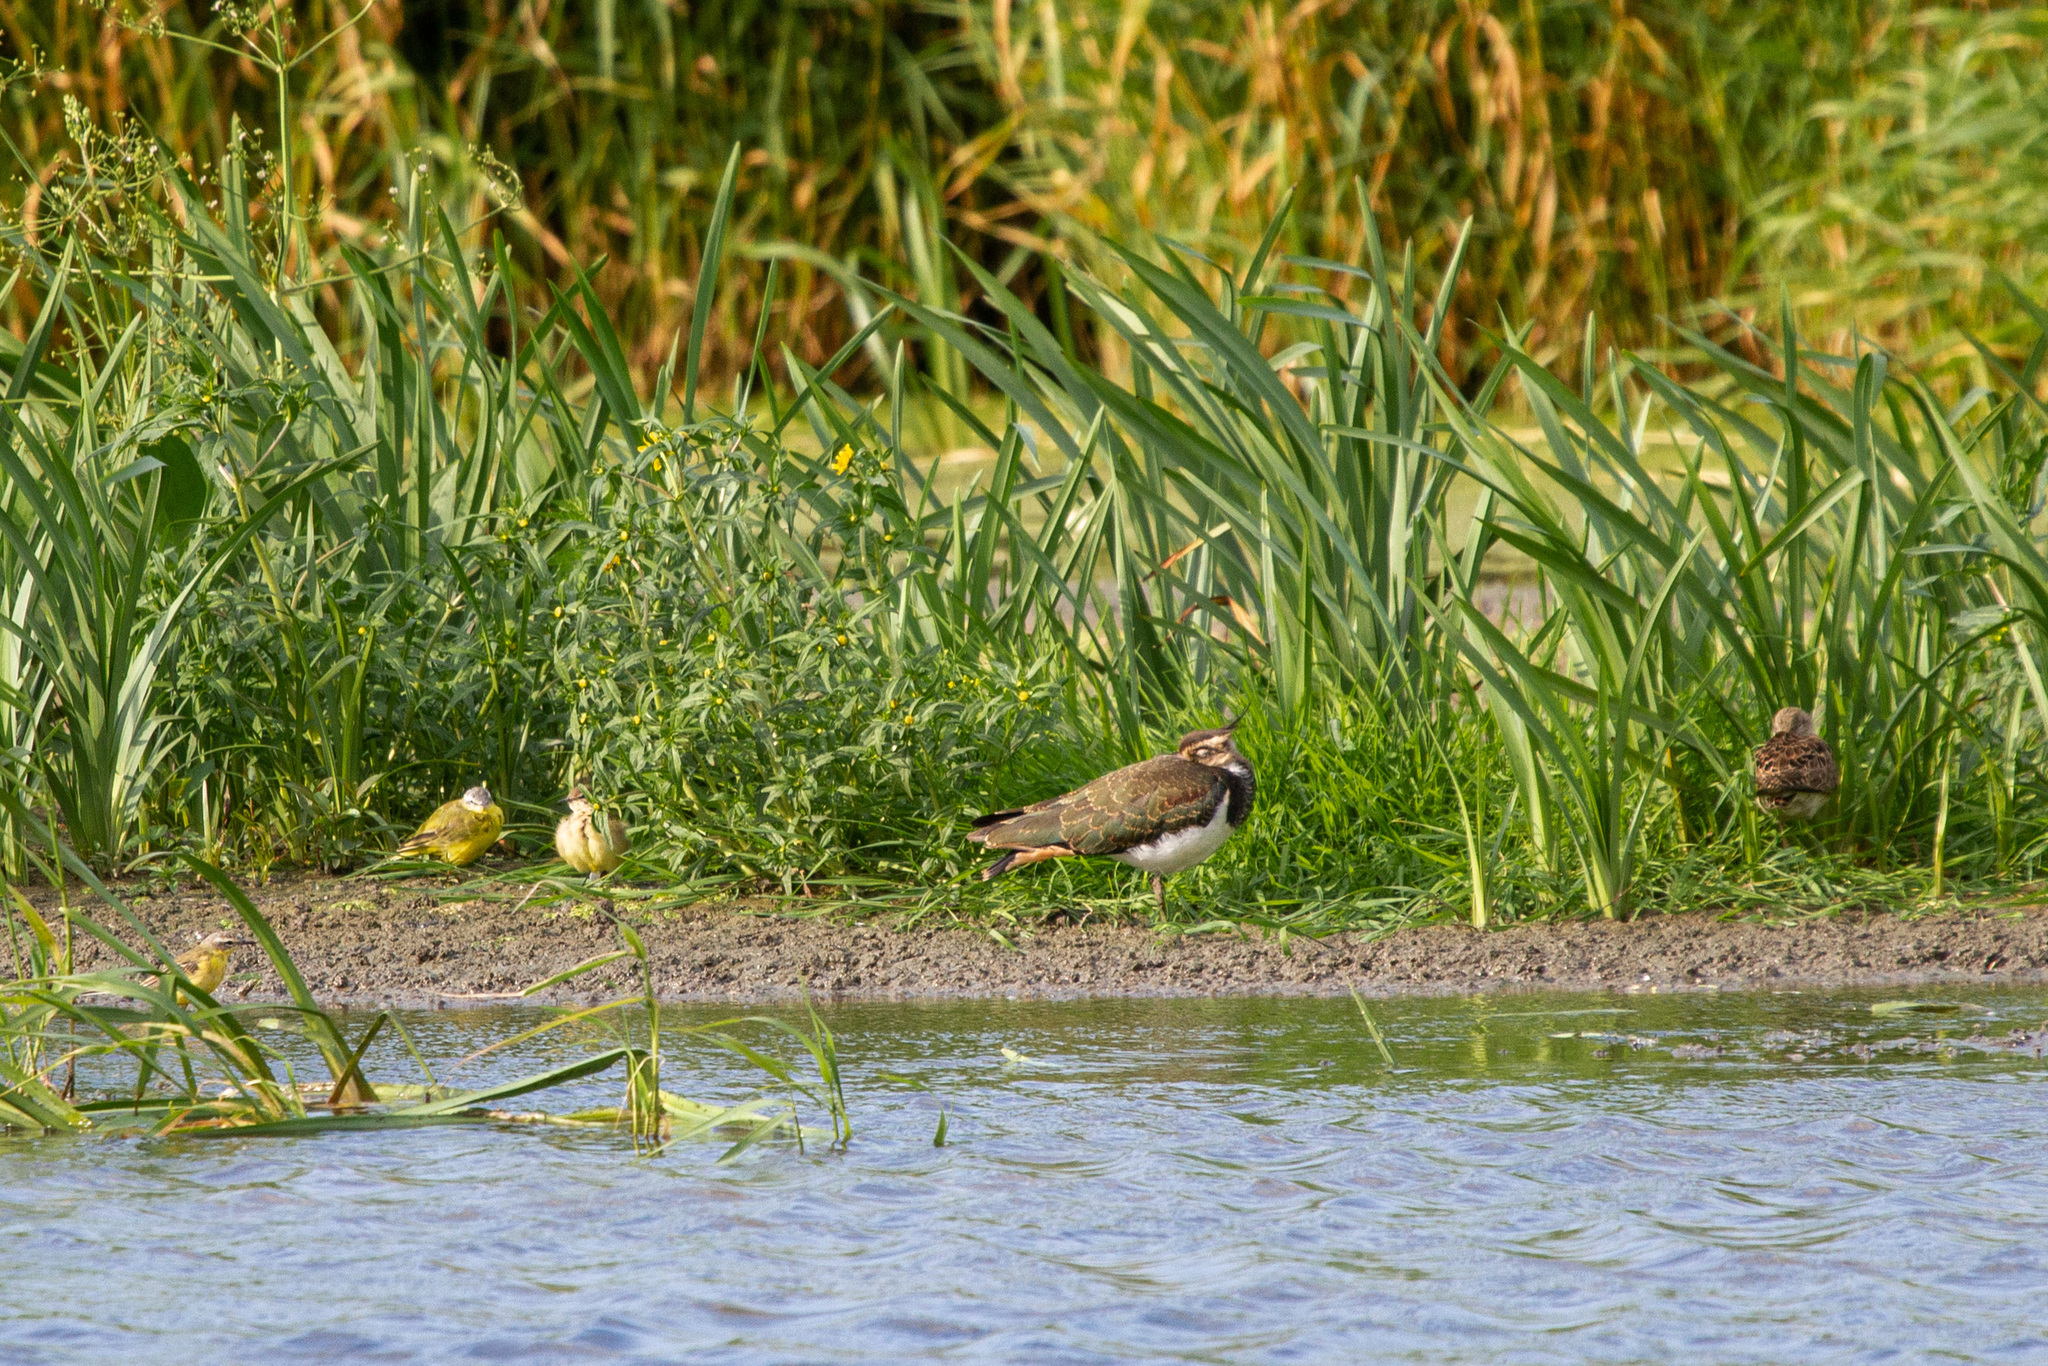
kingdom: Animalia
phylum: Chordata
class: Aves
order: Charadriiformes
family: Charadriidae
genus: Vanellus
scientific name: Vanellus vanellus
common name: Northern lapwing
